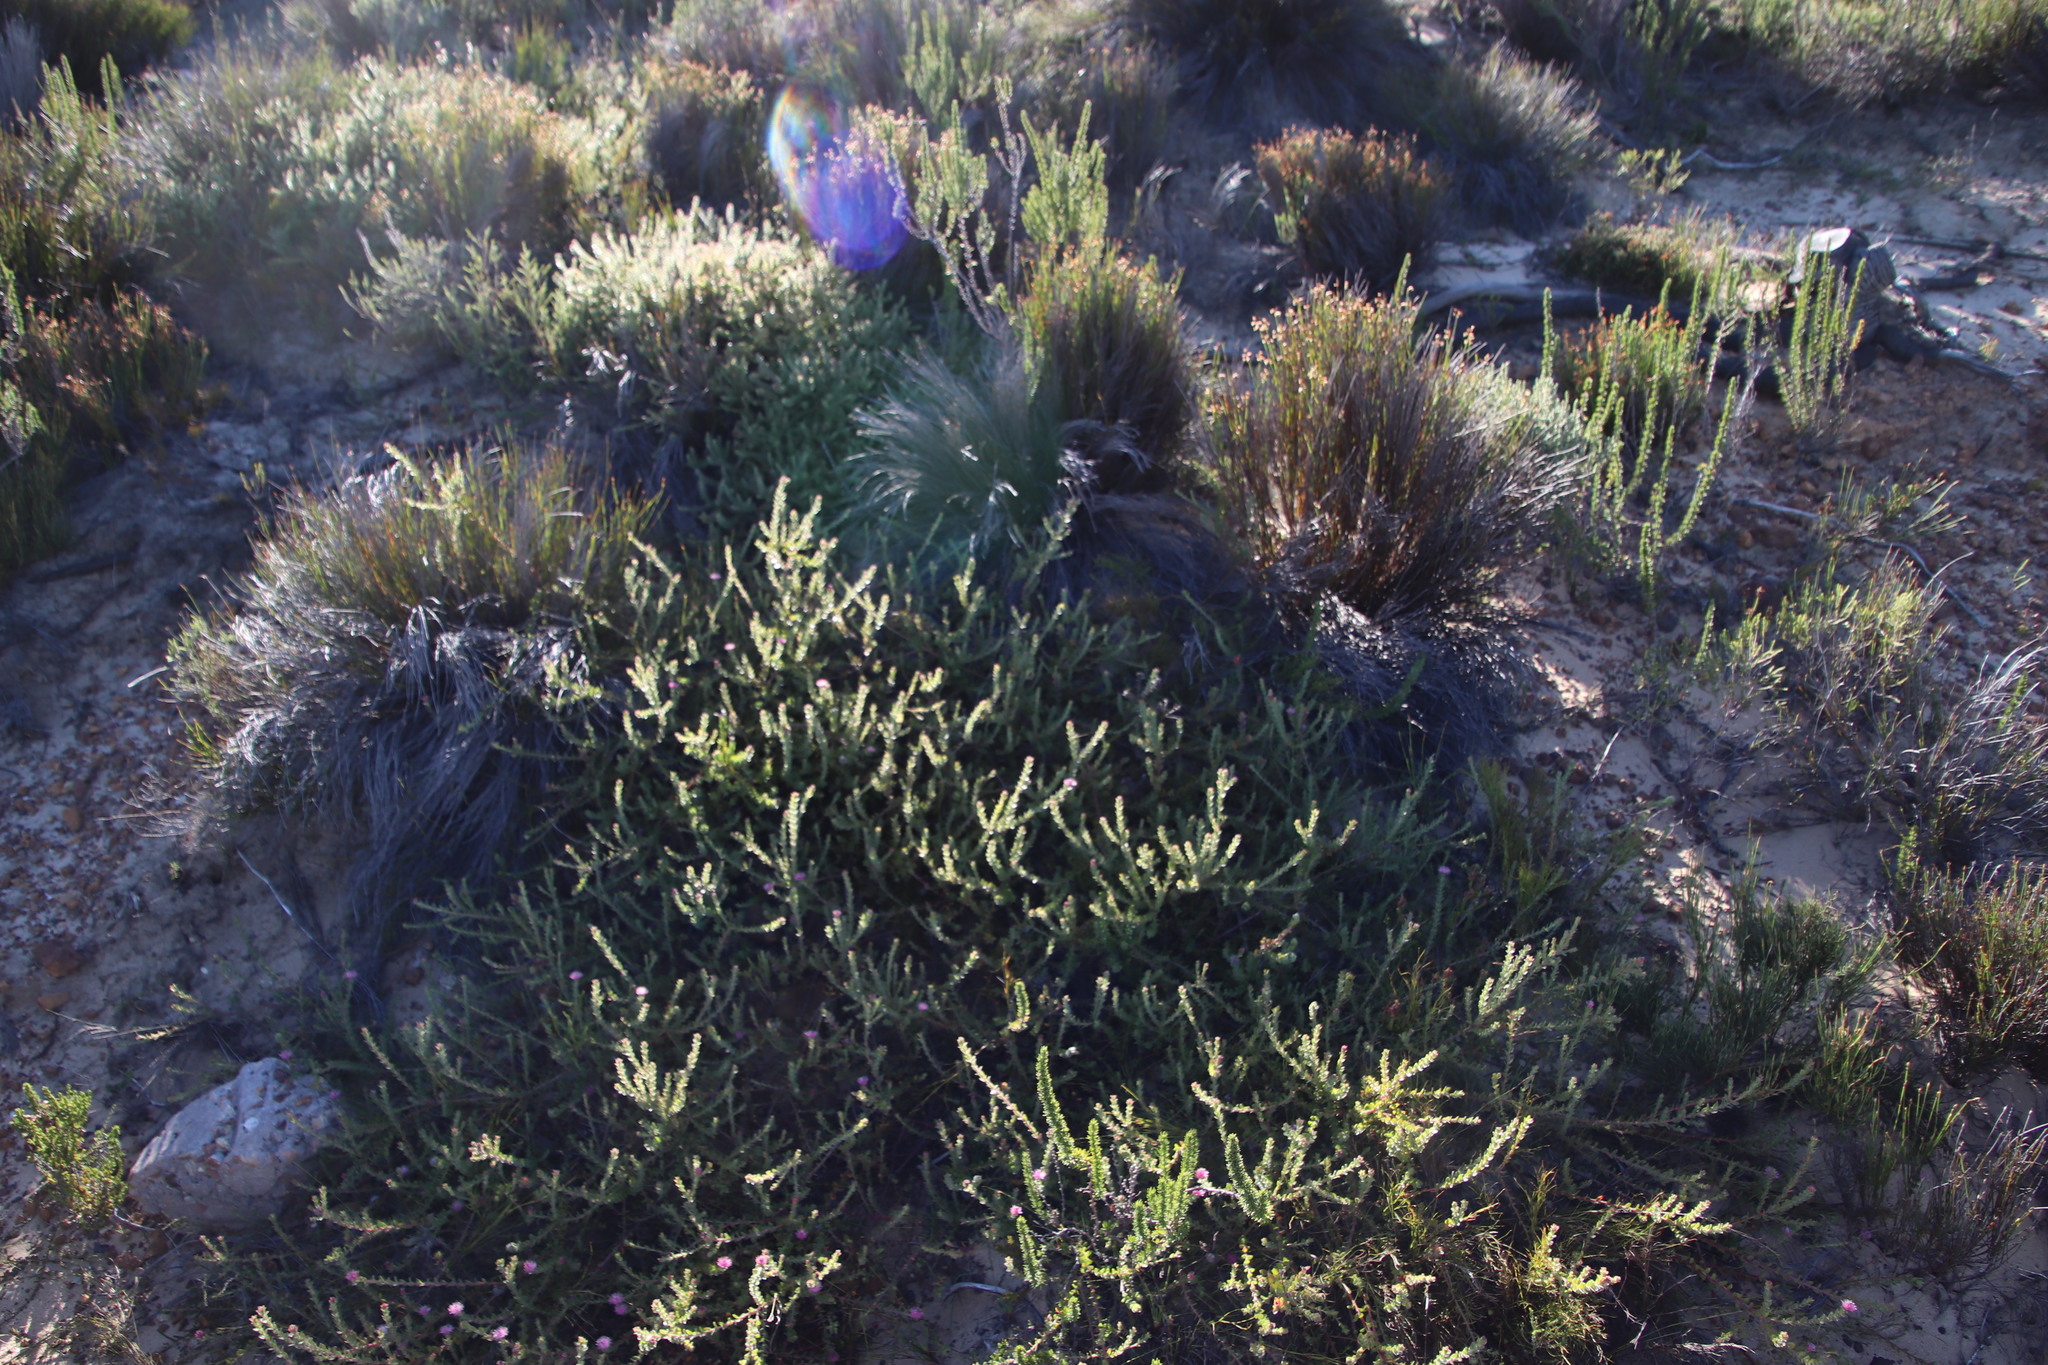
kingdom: Plantae
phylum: Tracheophyta
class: Magnoliopsida
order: Proteales
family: Proteaceae
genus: Diastella
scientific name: Diastella divaricata
